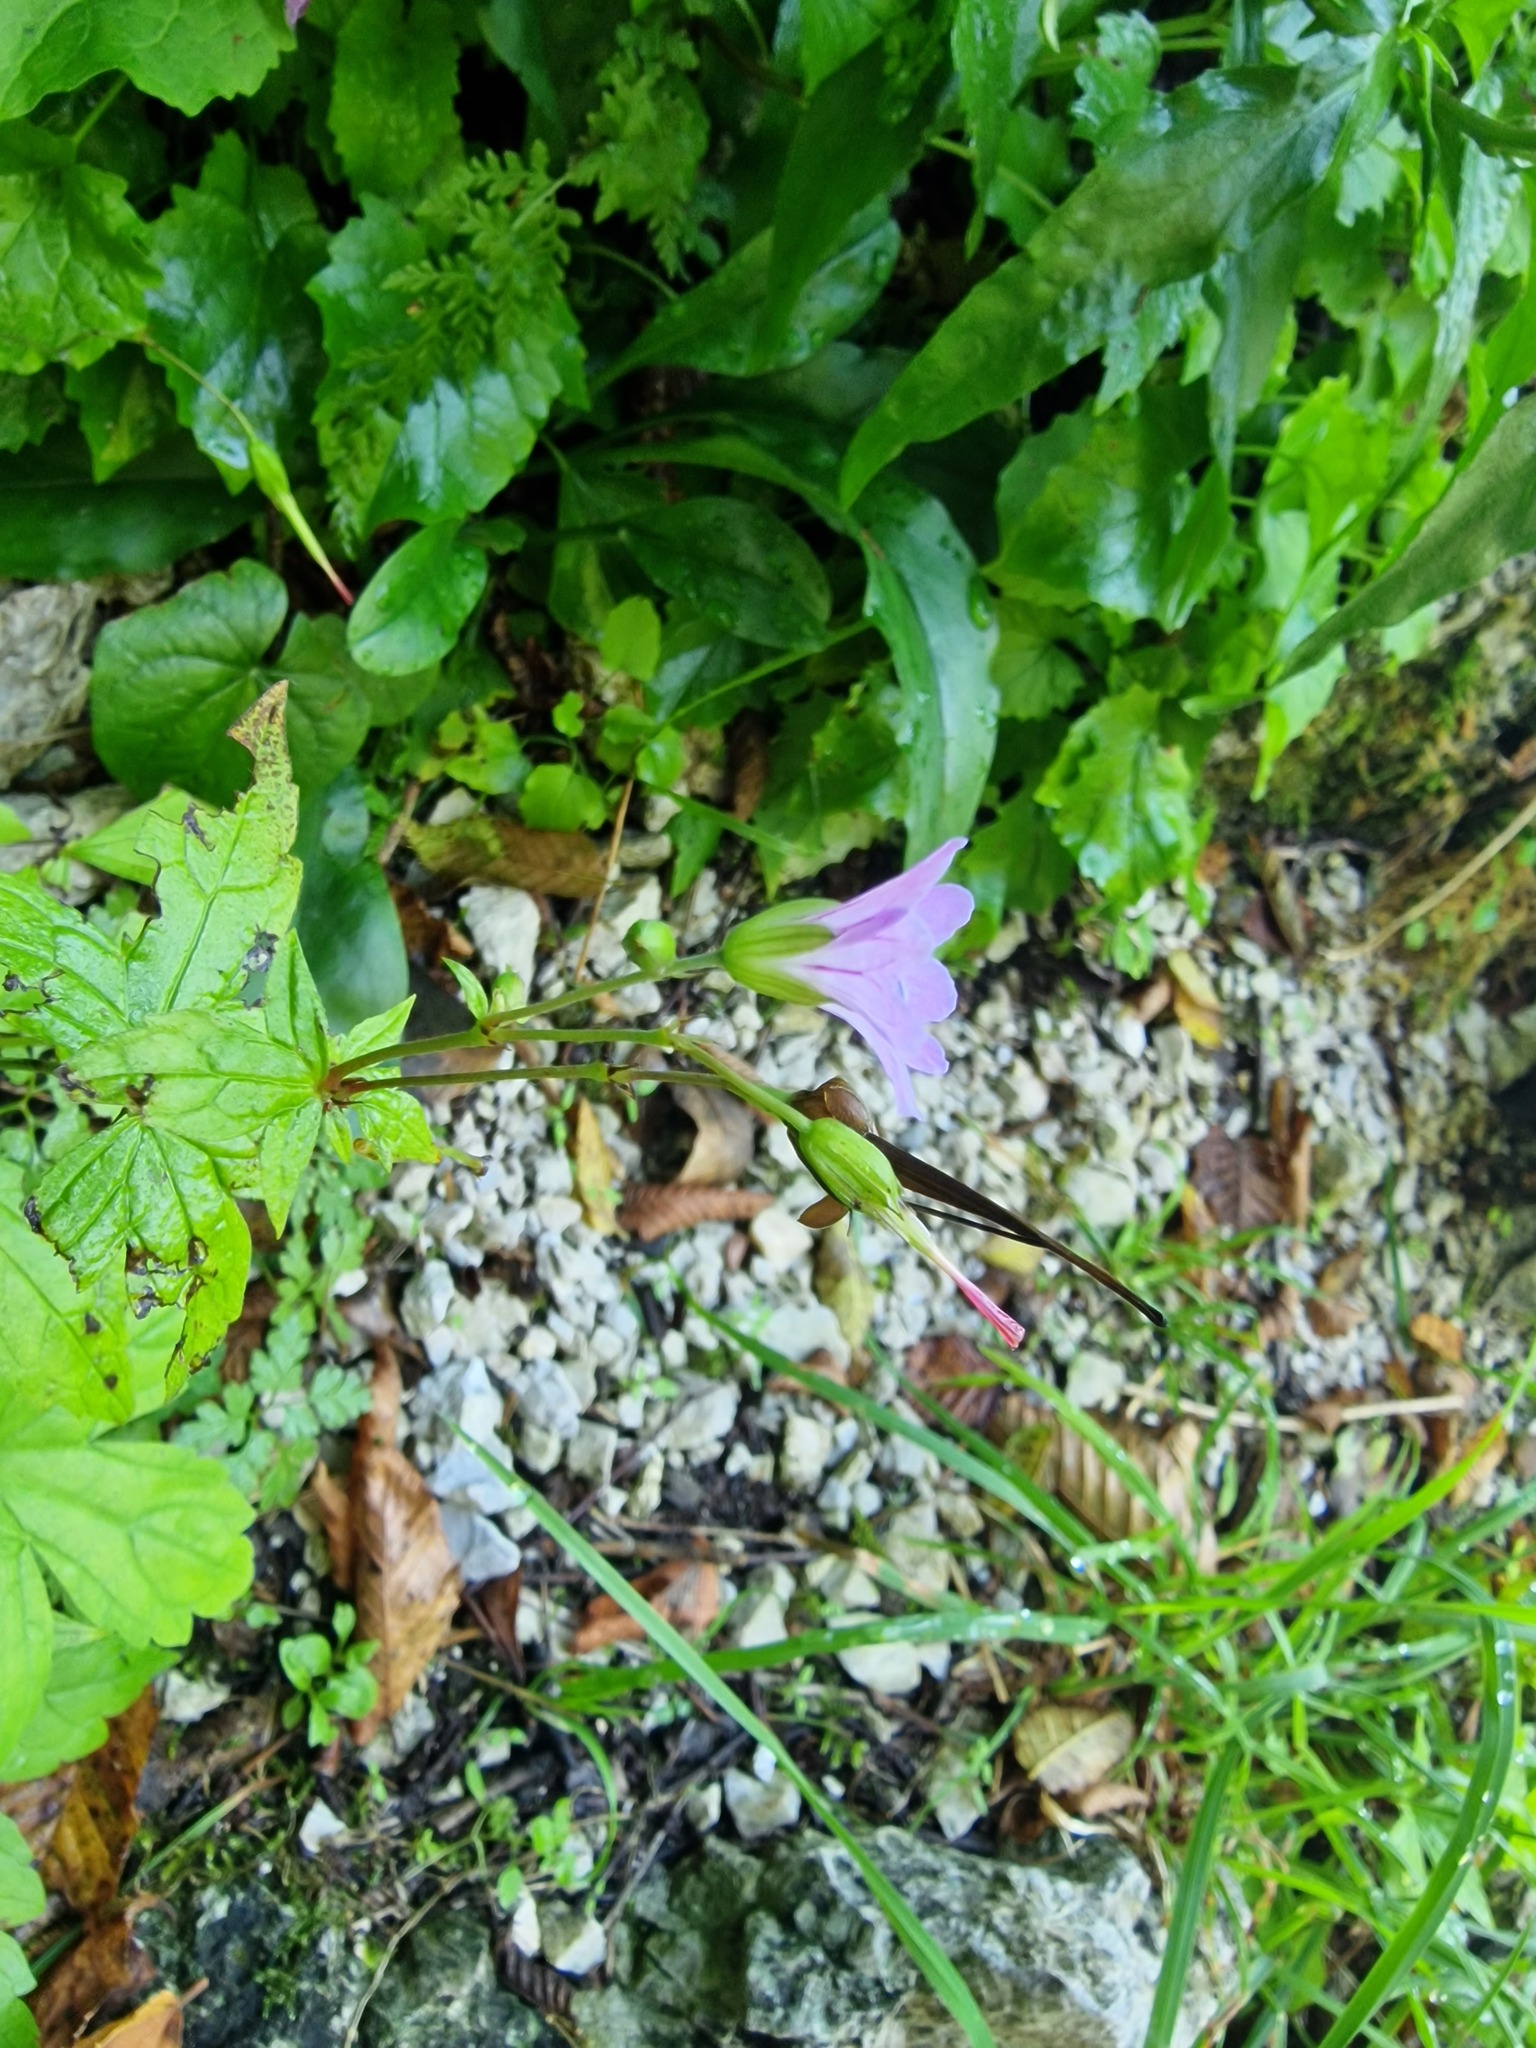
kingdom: Plantae
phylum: Tracheophyta
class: Magnoliopsida
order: Geraniales
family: Geraniaceae
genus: Geranium
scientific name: Geranium nodosum
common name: Knotted crane's-bill
